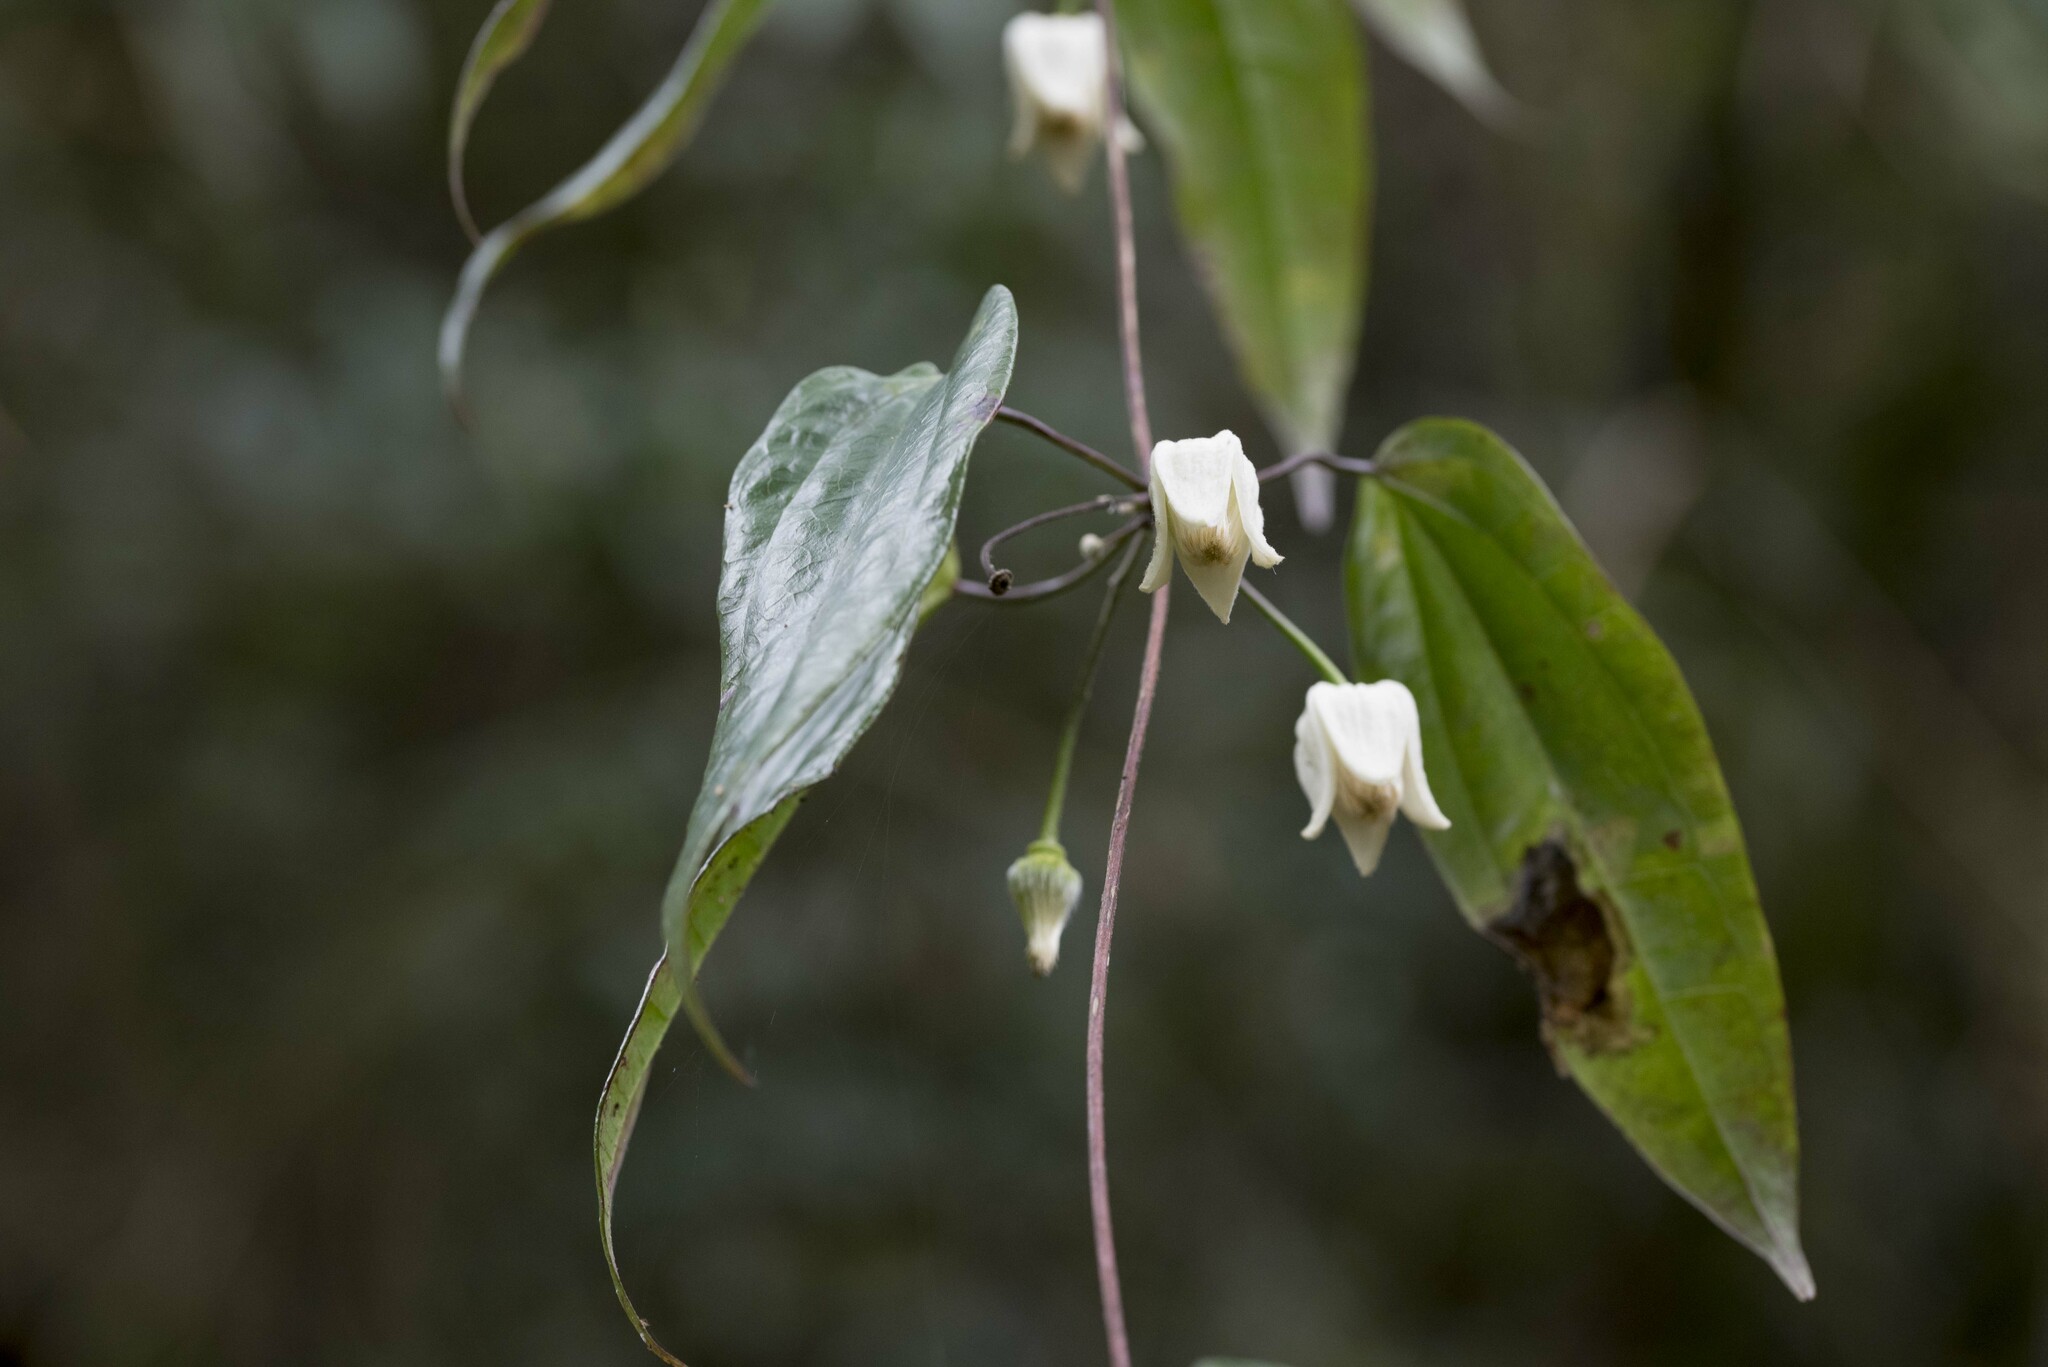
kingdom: Plantae
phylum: Tracheophyta
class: Magnoliopsida
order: Ranunculales
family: Ranunculaceae
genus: Clematis
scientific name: Clematis
